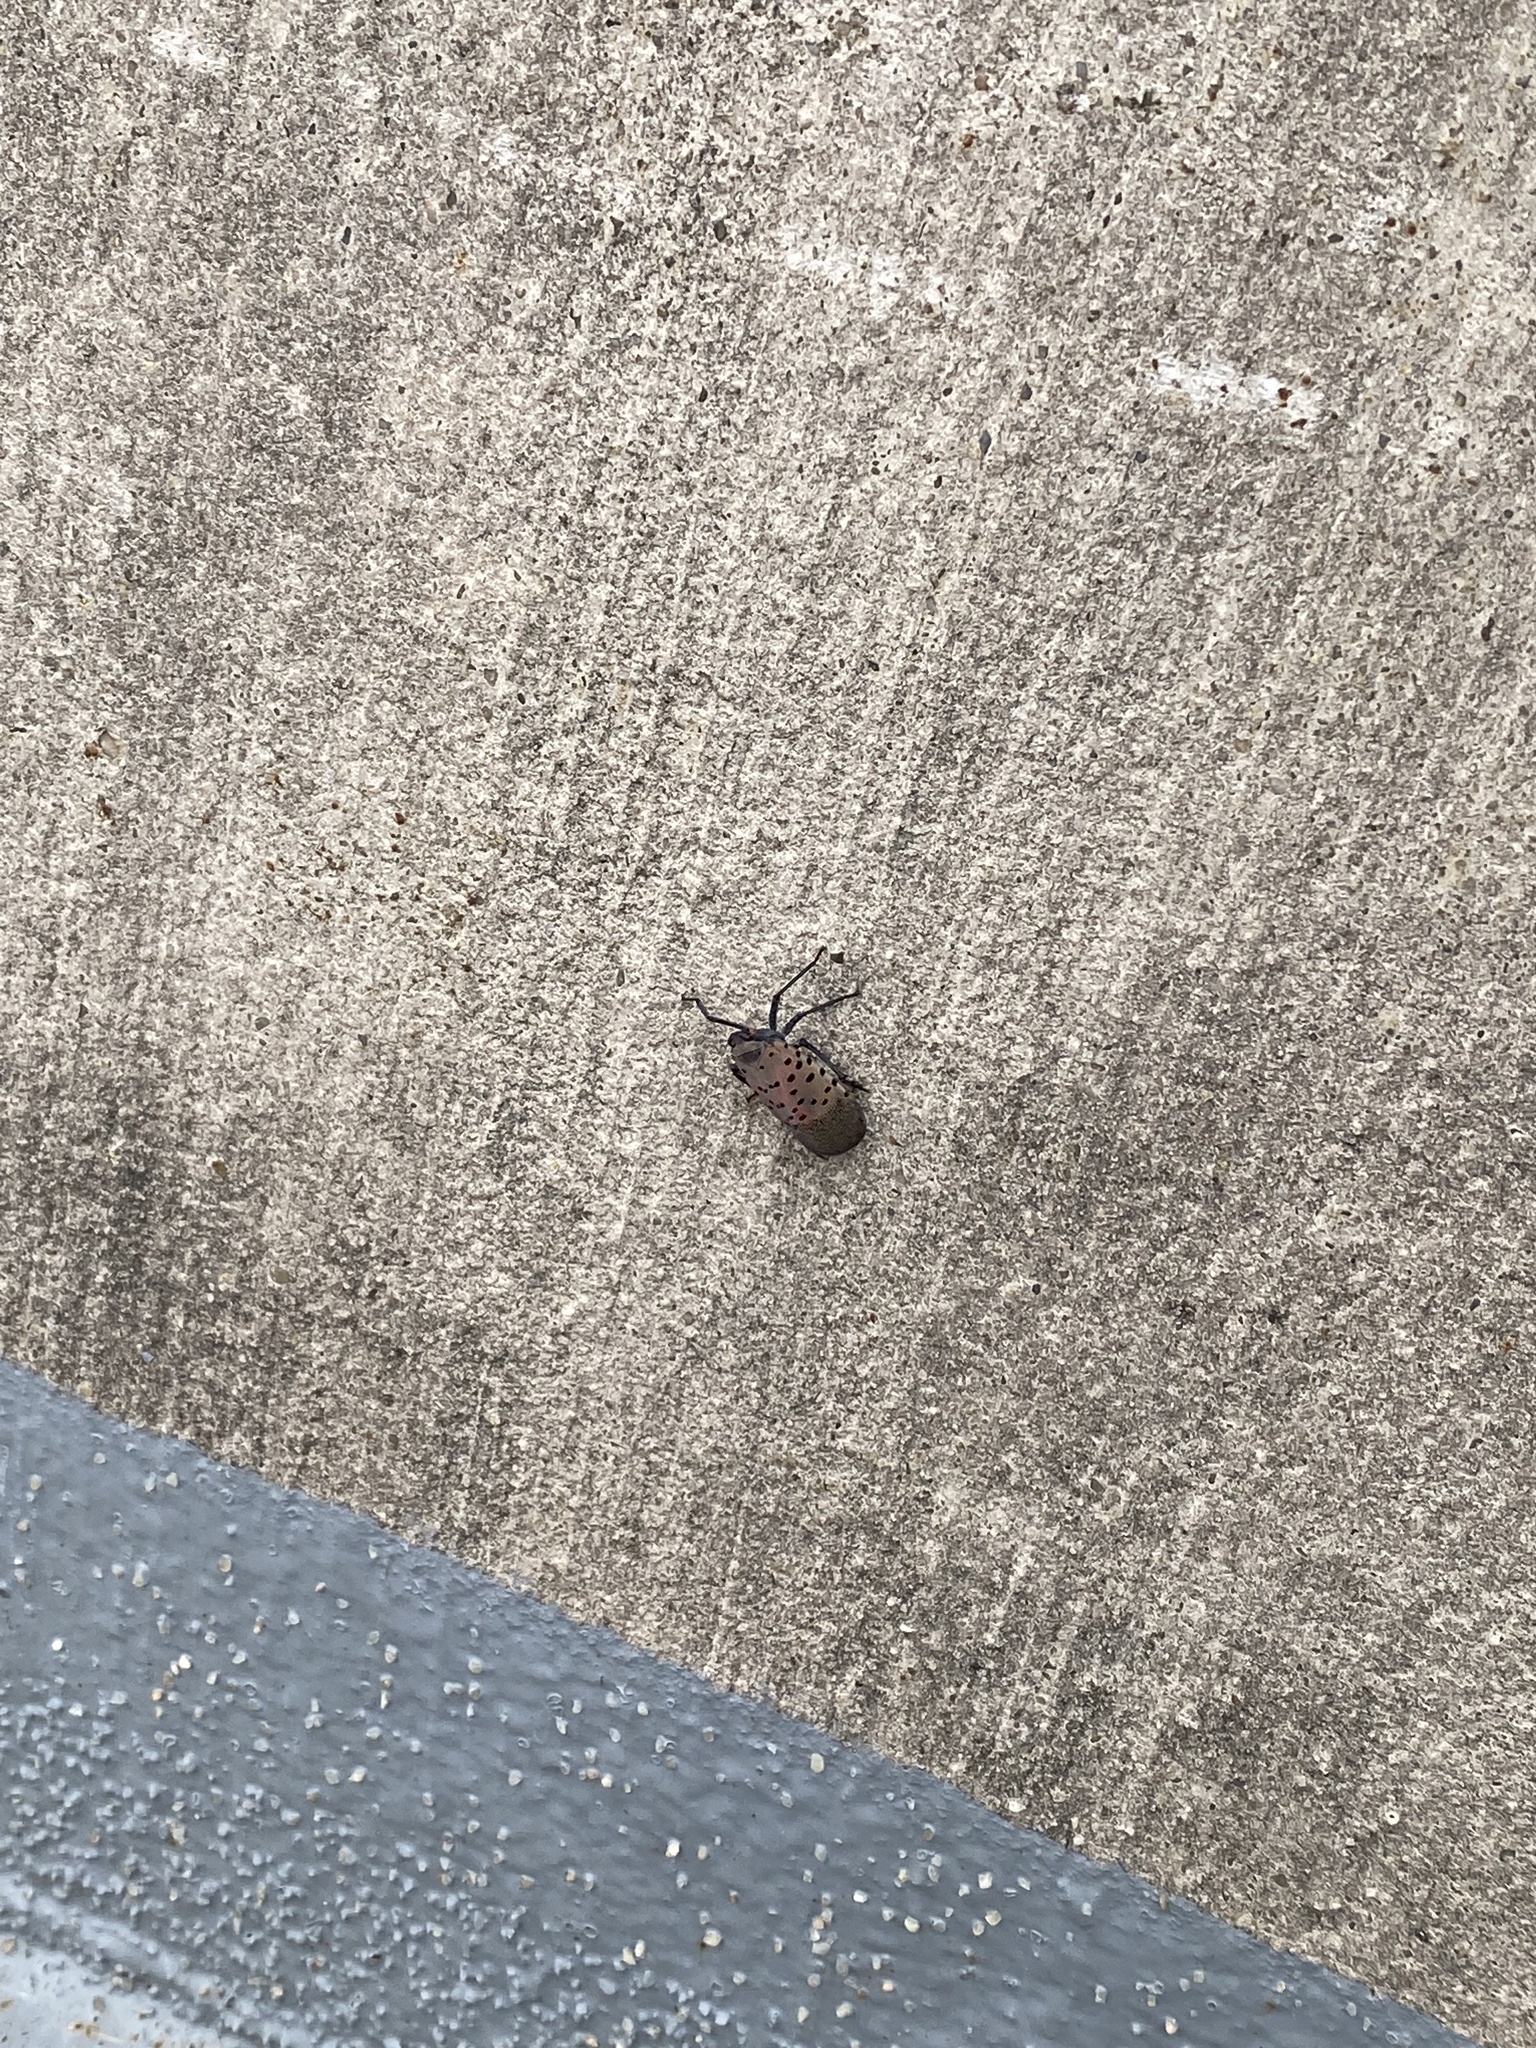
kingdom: Animalia
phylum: Arthropoda
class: Insecta
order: Hemiptera
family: Fulgoridae
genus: Lycorma
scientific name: Lycorma delicatula
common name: Spotted lanternfly
